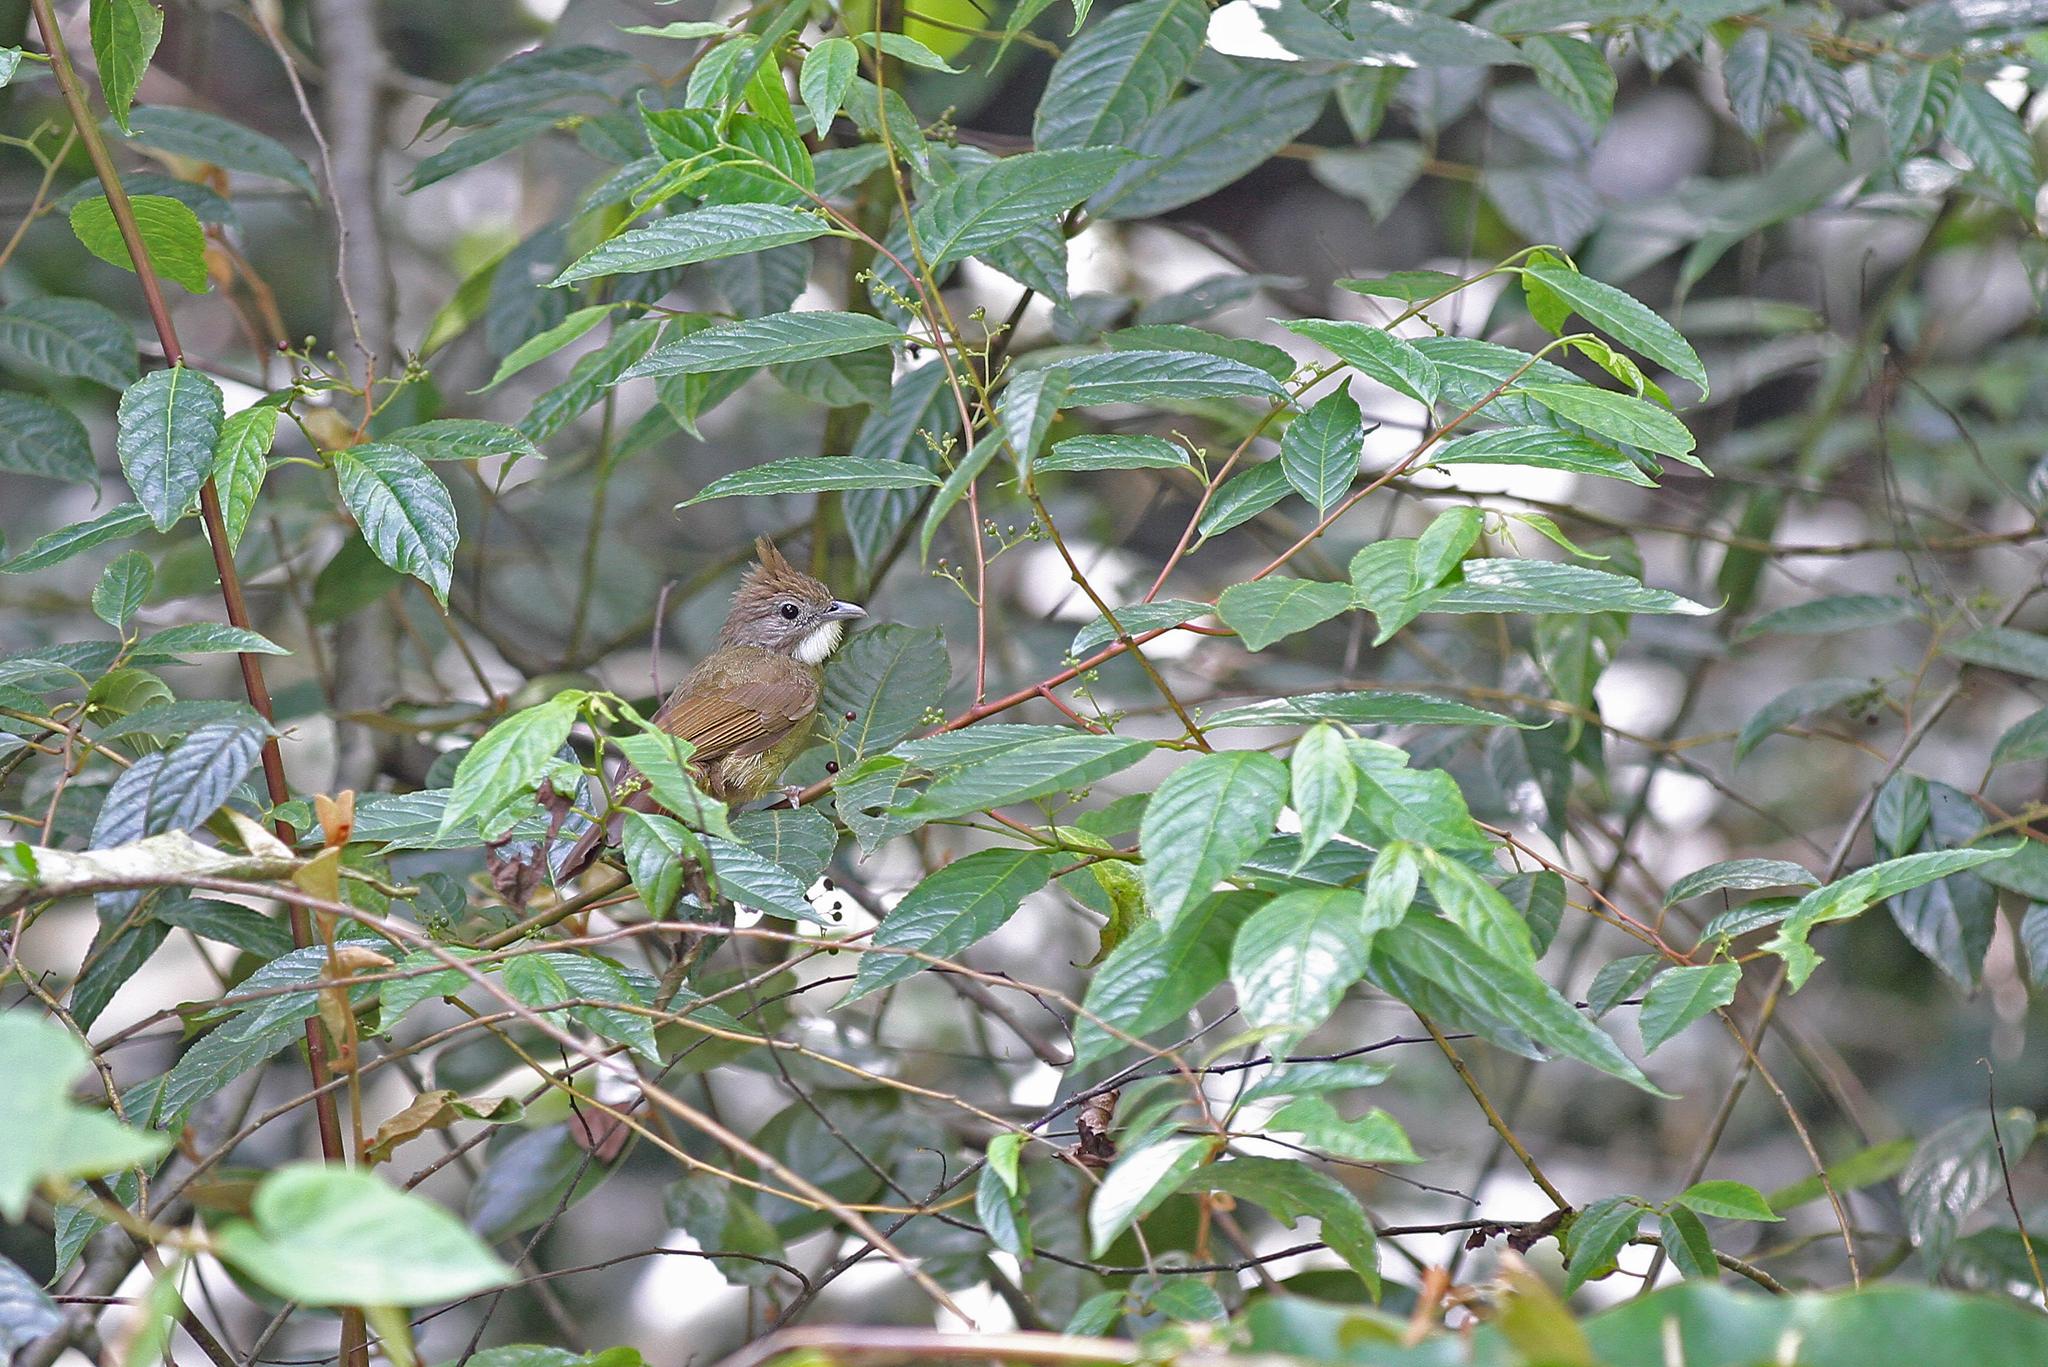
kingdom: Animalia
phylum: Chordata
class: Aves
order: Passeriformes
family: Pycnonotidae
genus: Alophoixus
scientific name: Alophoixus ochraceus
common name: Ochraceous bulbul
